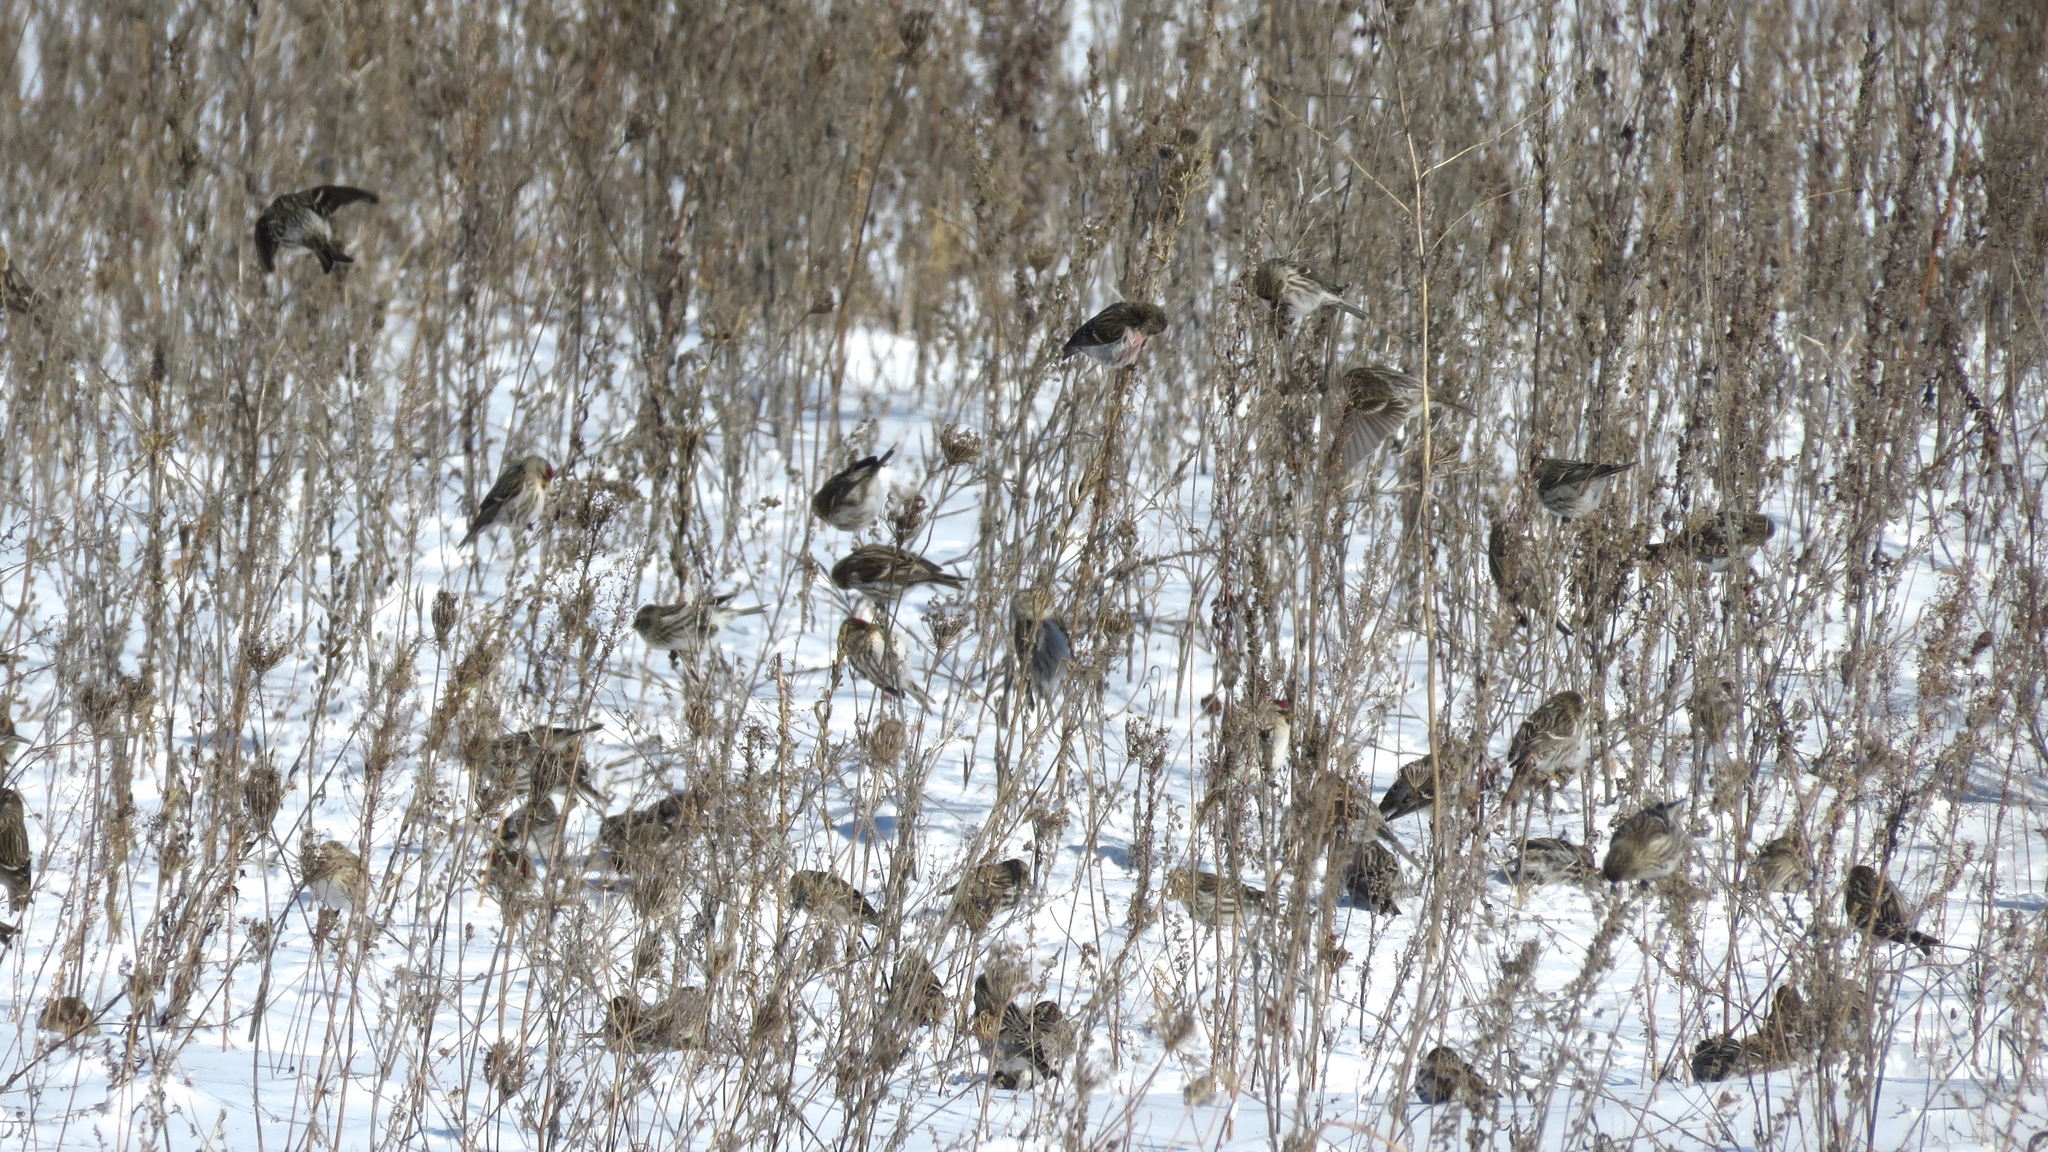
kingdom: Animalia
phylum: Chordata
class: Aves
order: Passeriformes
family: Fringillidae
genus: Acanthis
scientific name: Acanthis flammea
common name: Common redpoll
